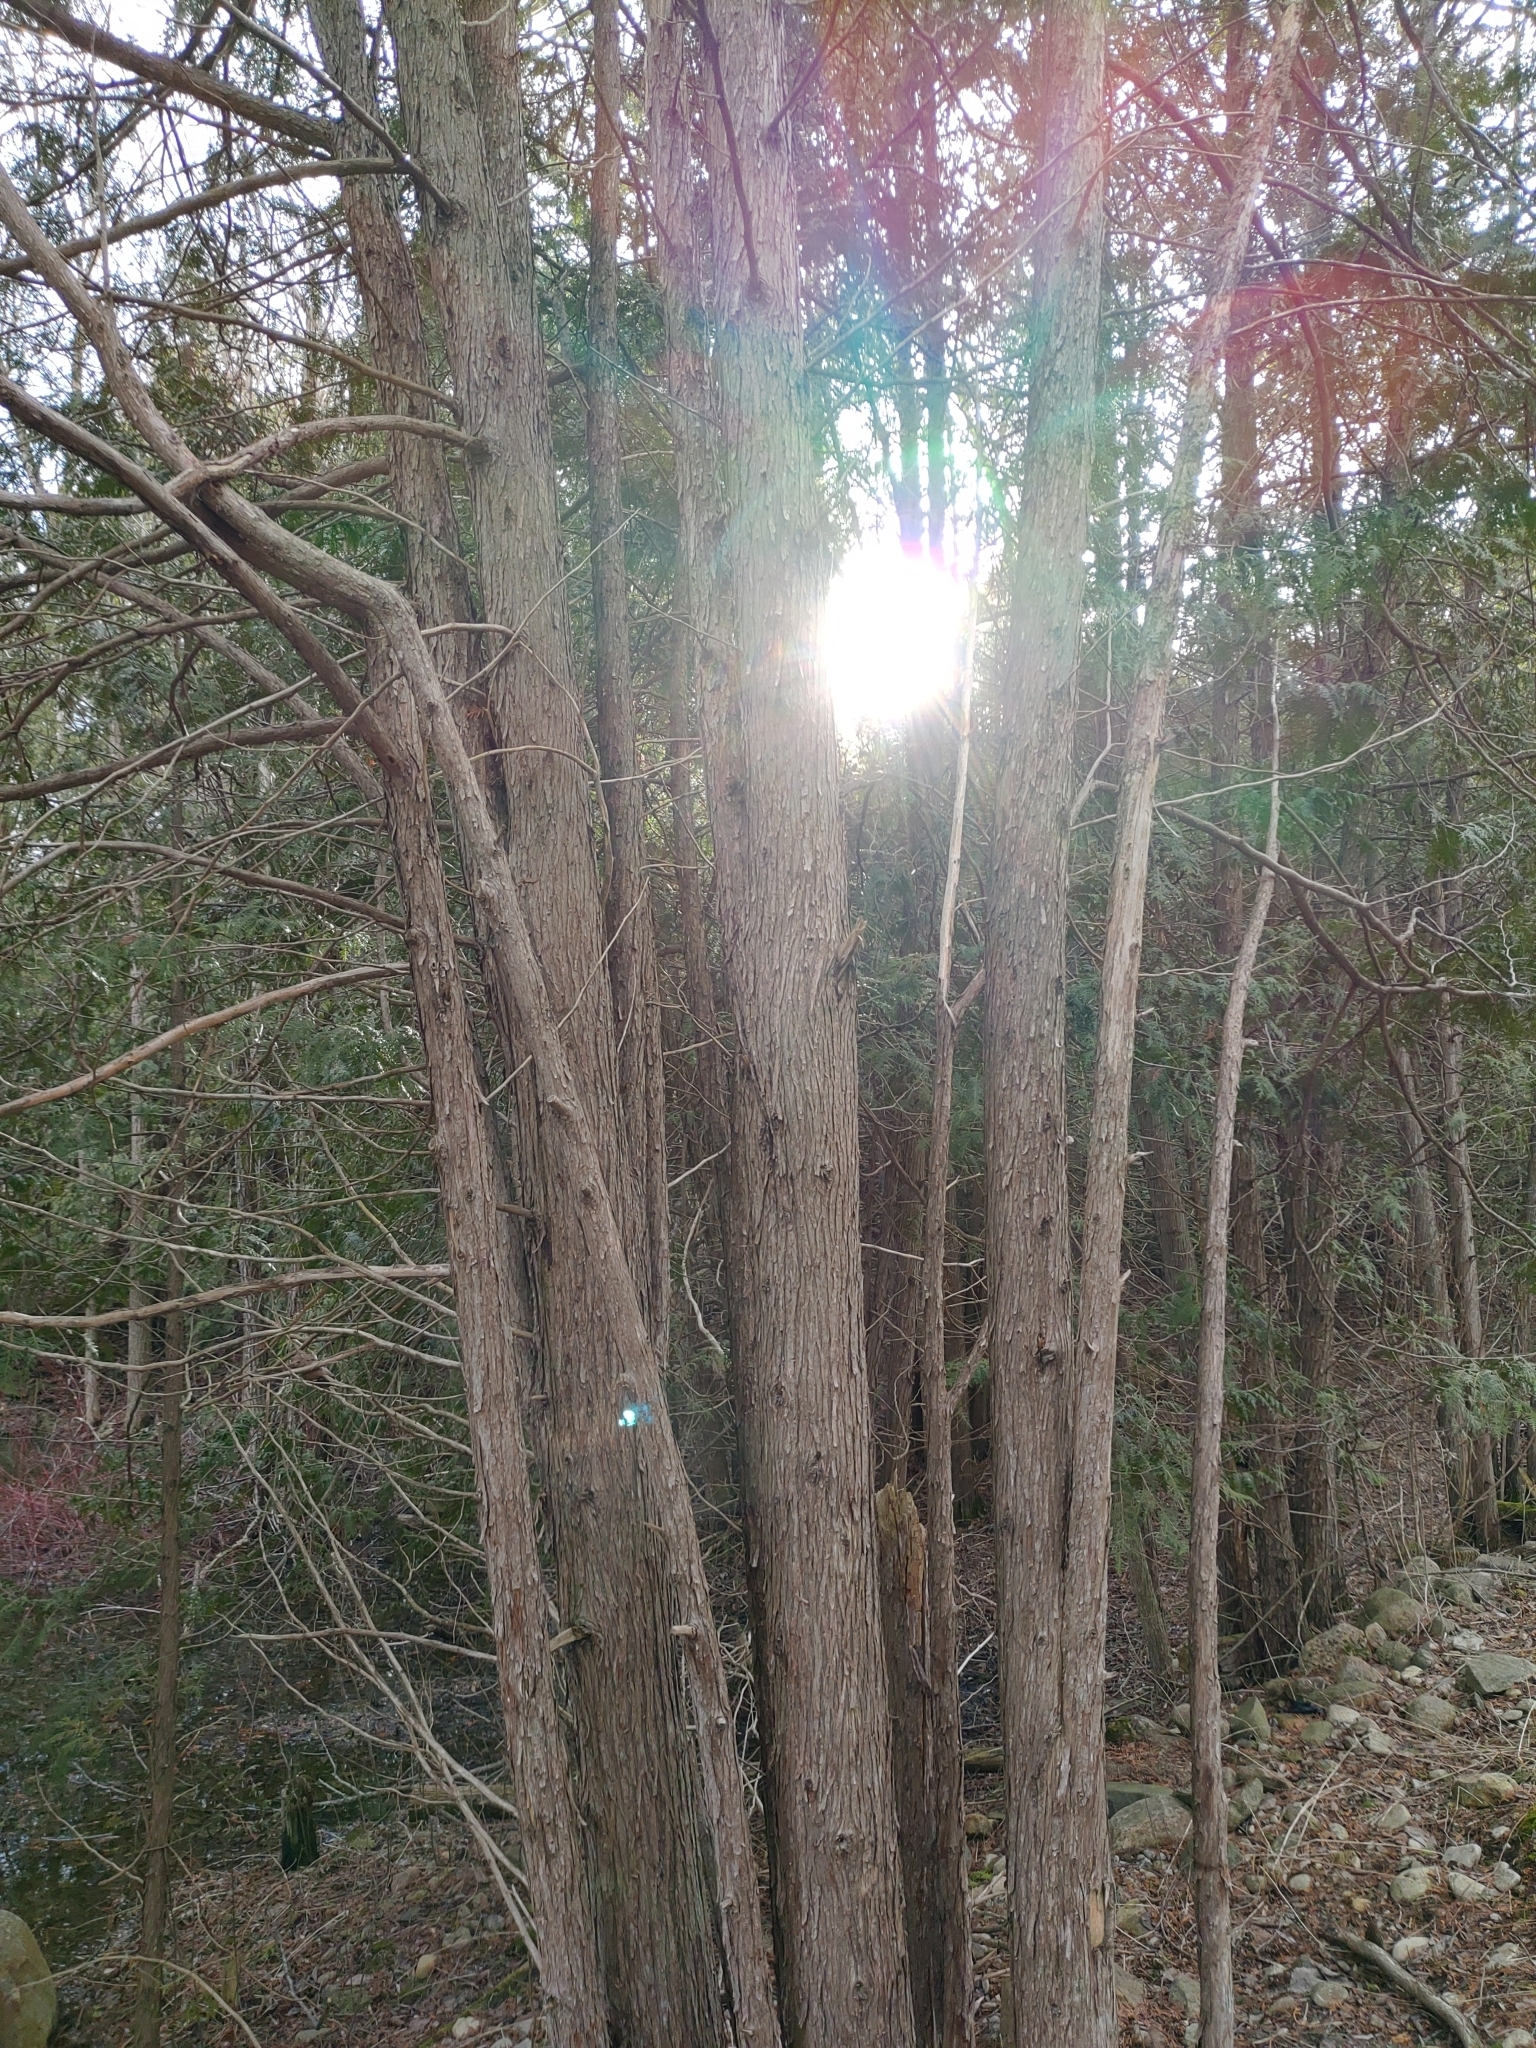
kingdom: Plantae
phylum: Tracheophyta
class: Pinopsida
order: Pinales
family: Cupressaceae
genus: Thuja
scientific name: Thuja occidentalis
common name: Northern white-cedar
